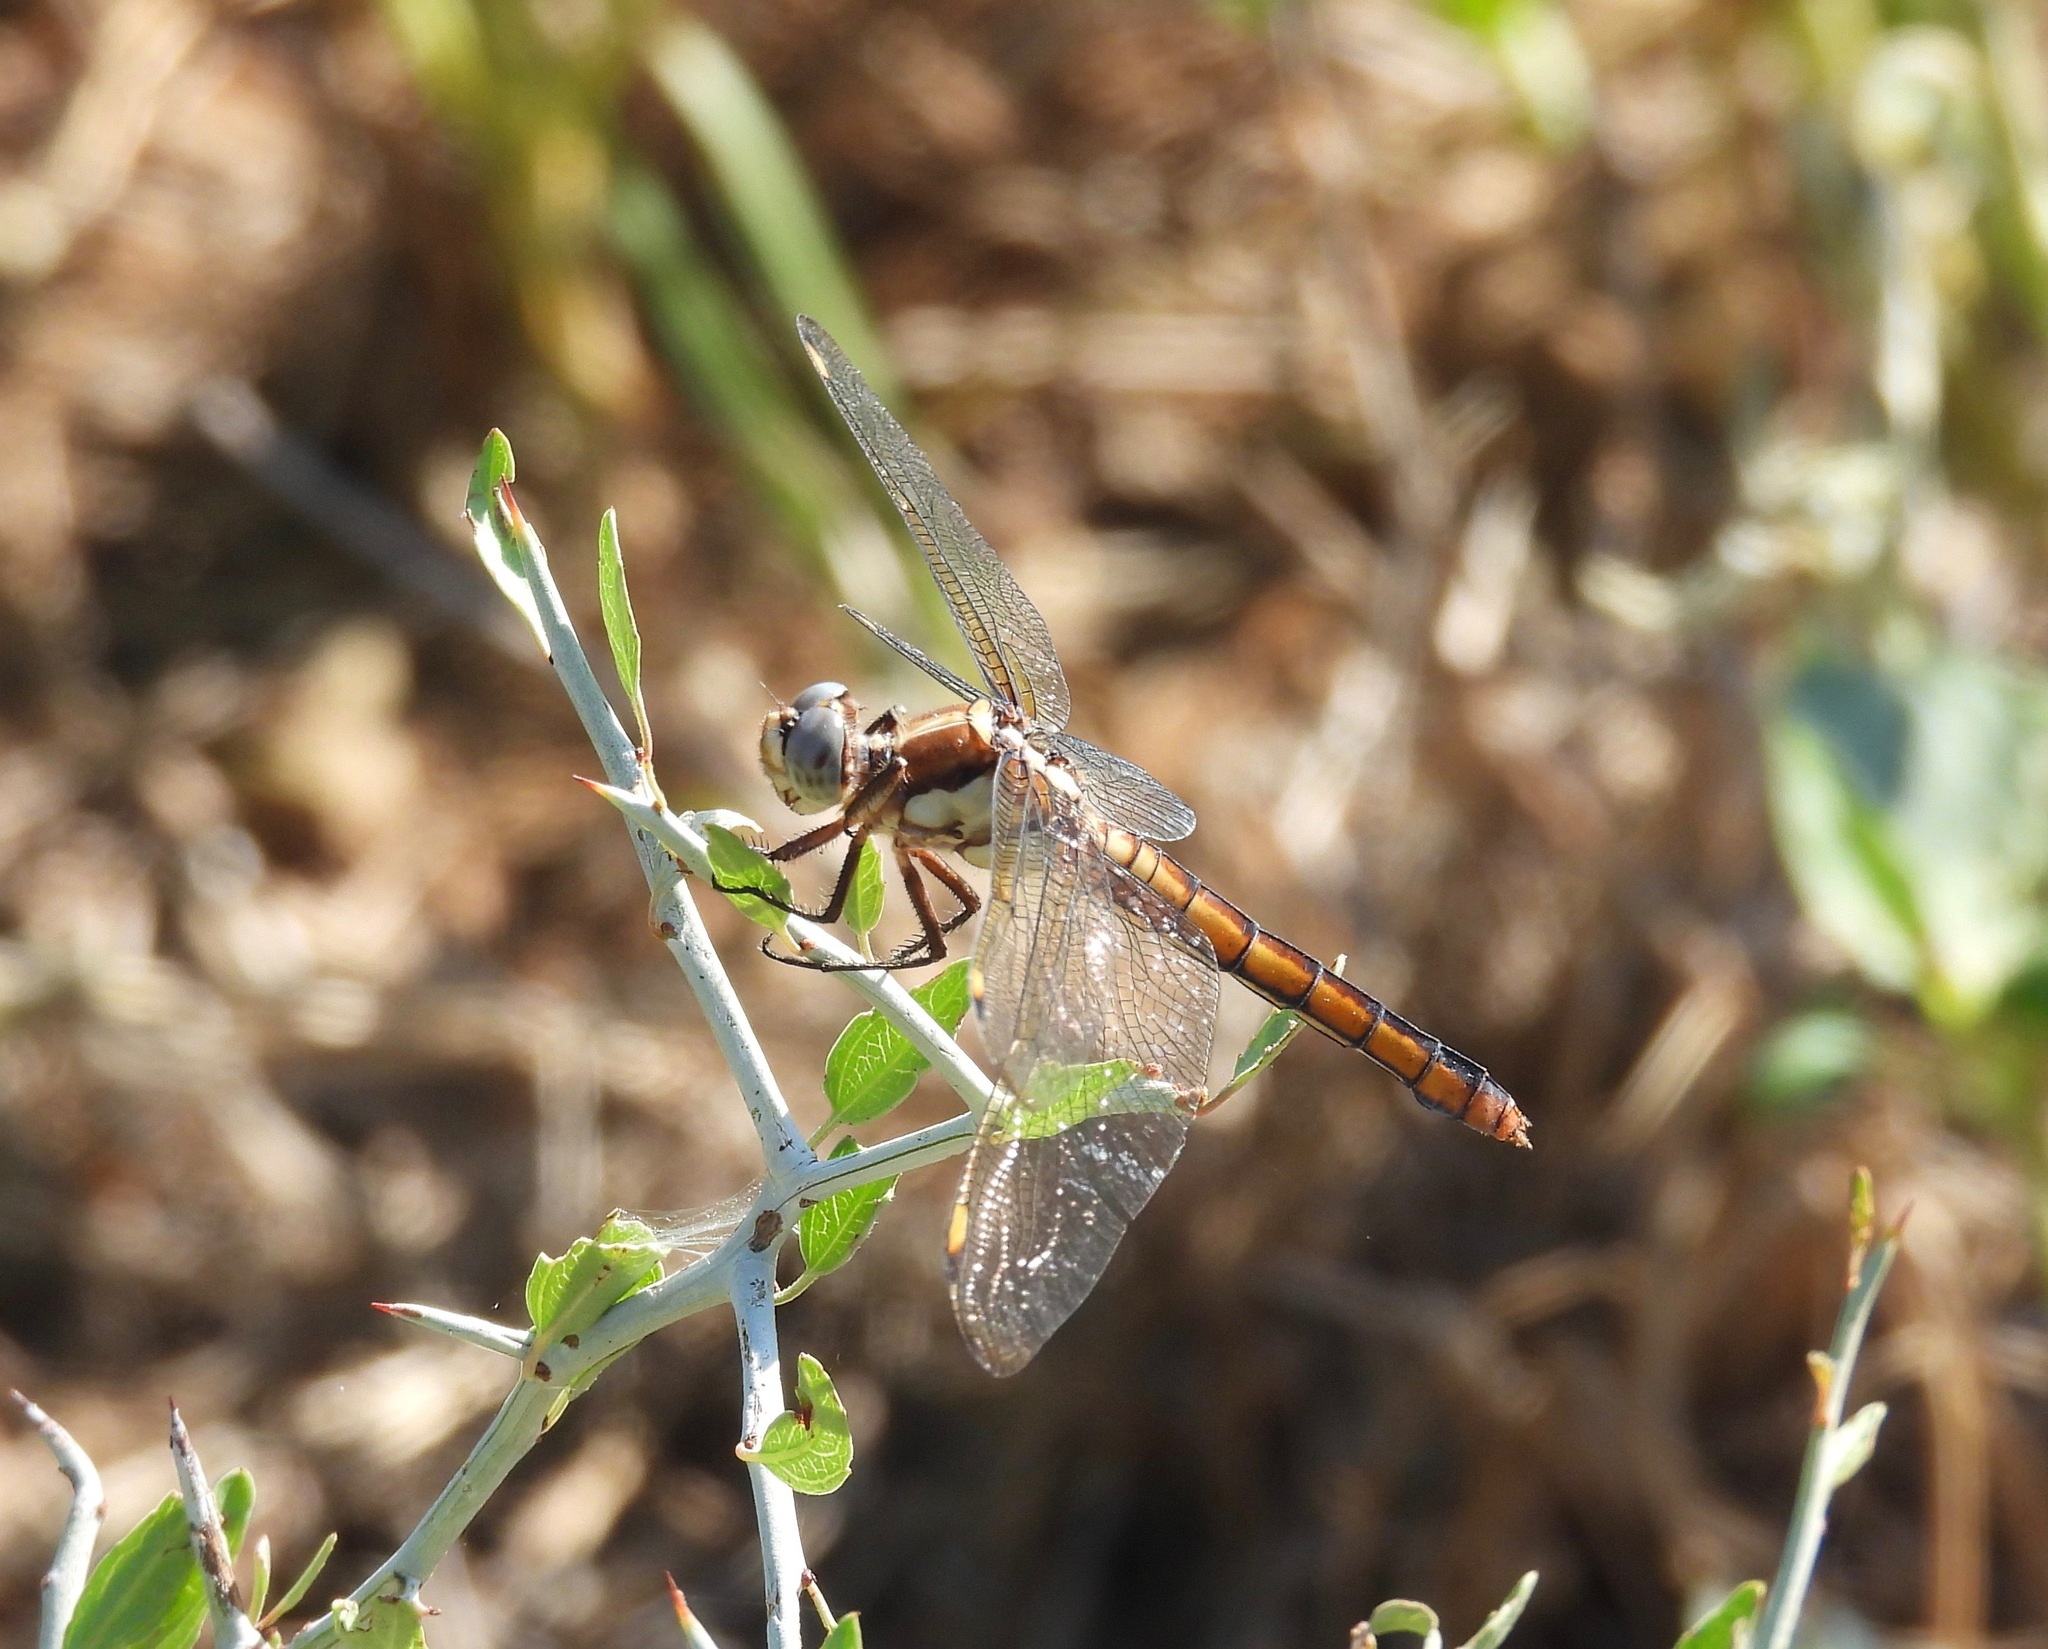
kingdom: Animalia
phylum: Arthropoda
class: Insecta
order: Odonata
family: Libellulidae
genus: Libellula
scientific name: Libellula comanche
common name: Comanche skimmer
